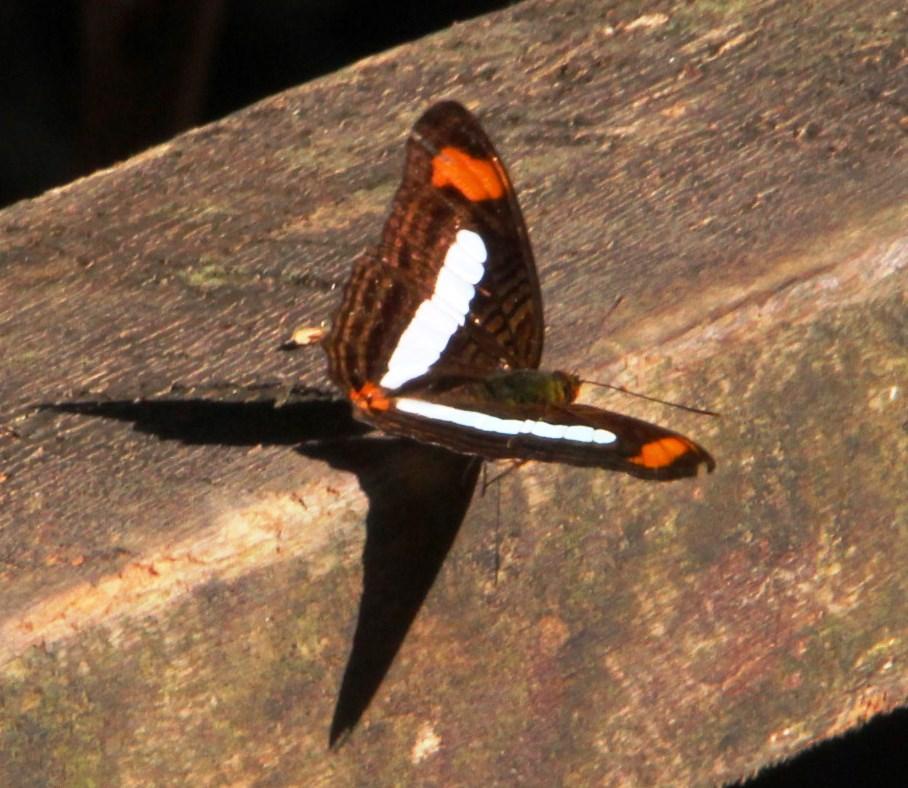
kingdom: Animalia
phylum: Arthropoda
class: Insecta
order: Lepidoptera
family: Nymphalidae
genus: Limenitis
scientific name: Limenitis Adelpha iphiclus
